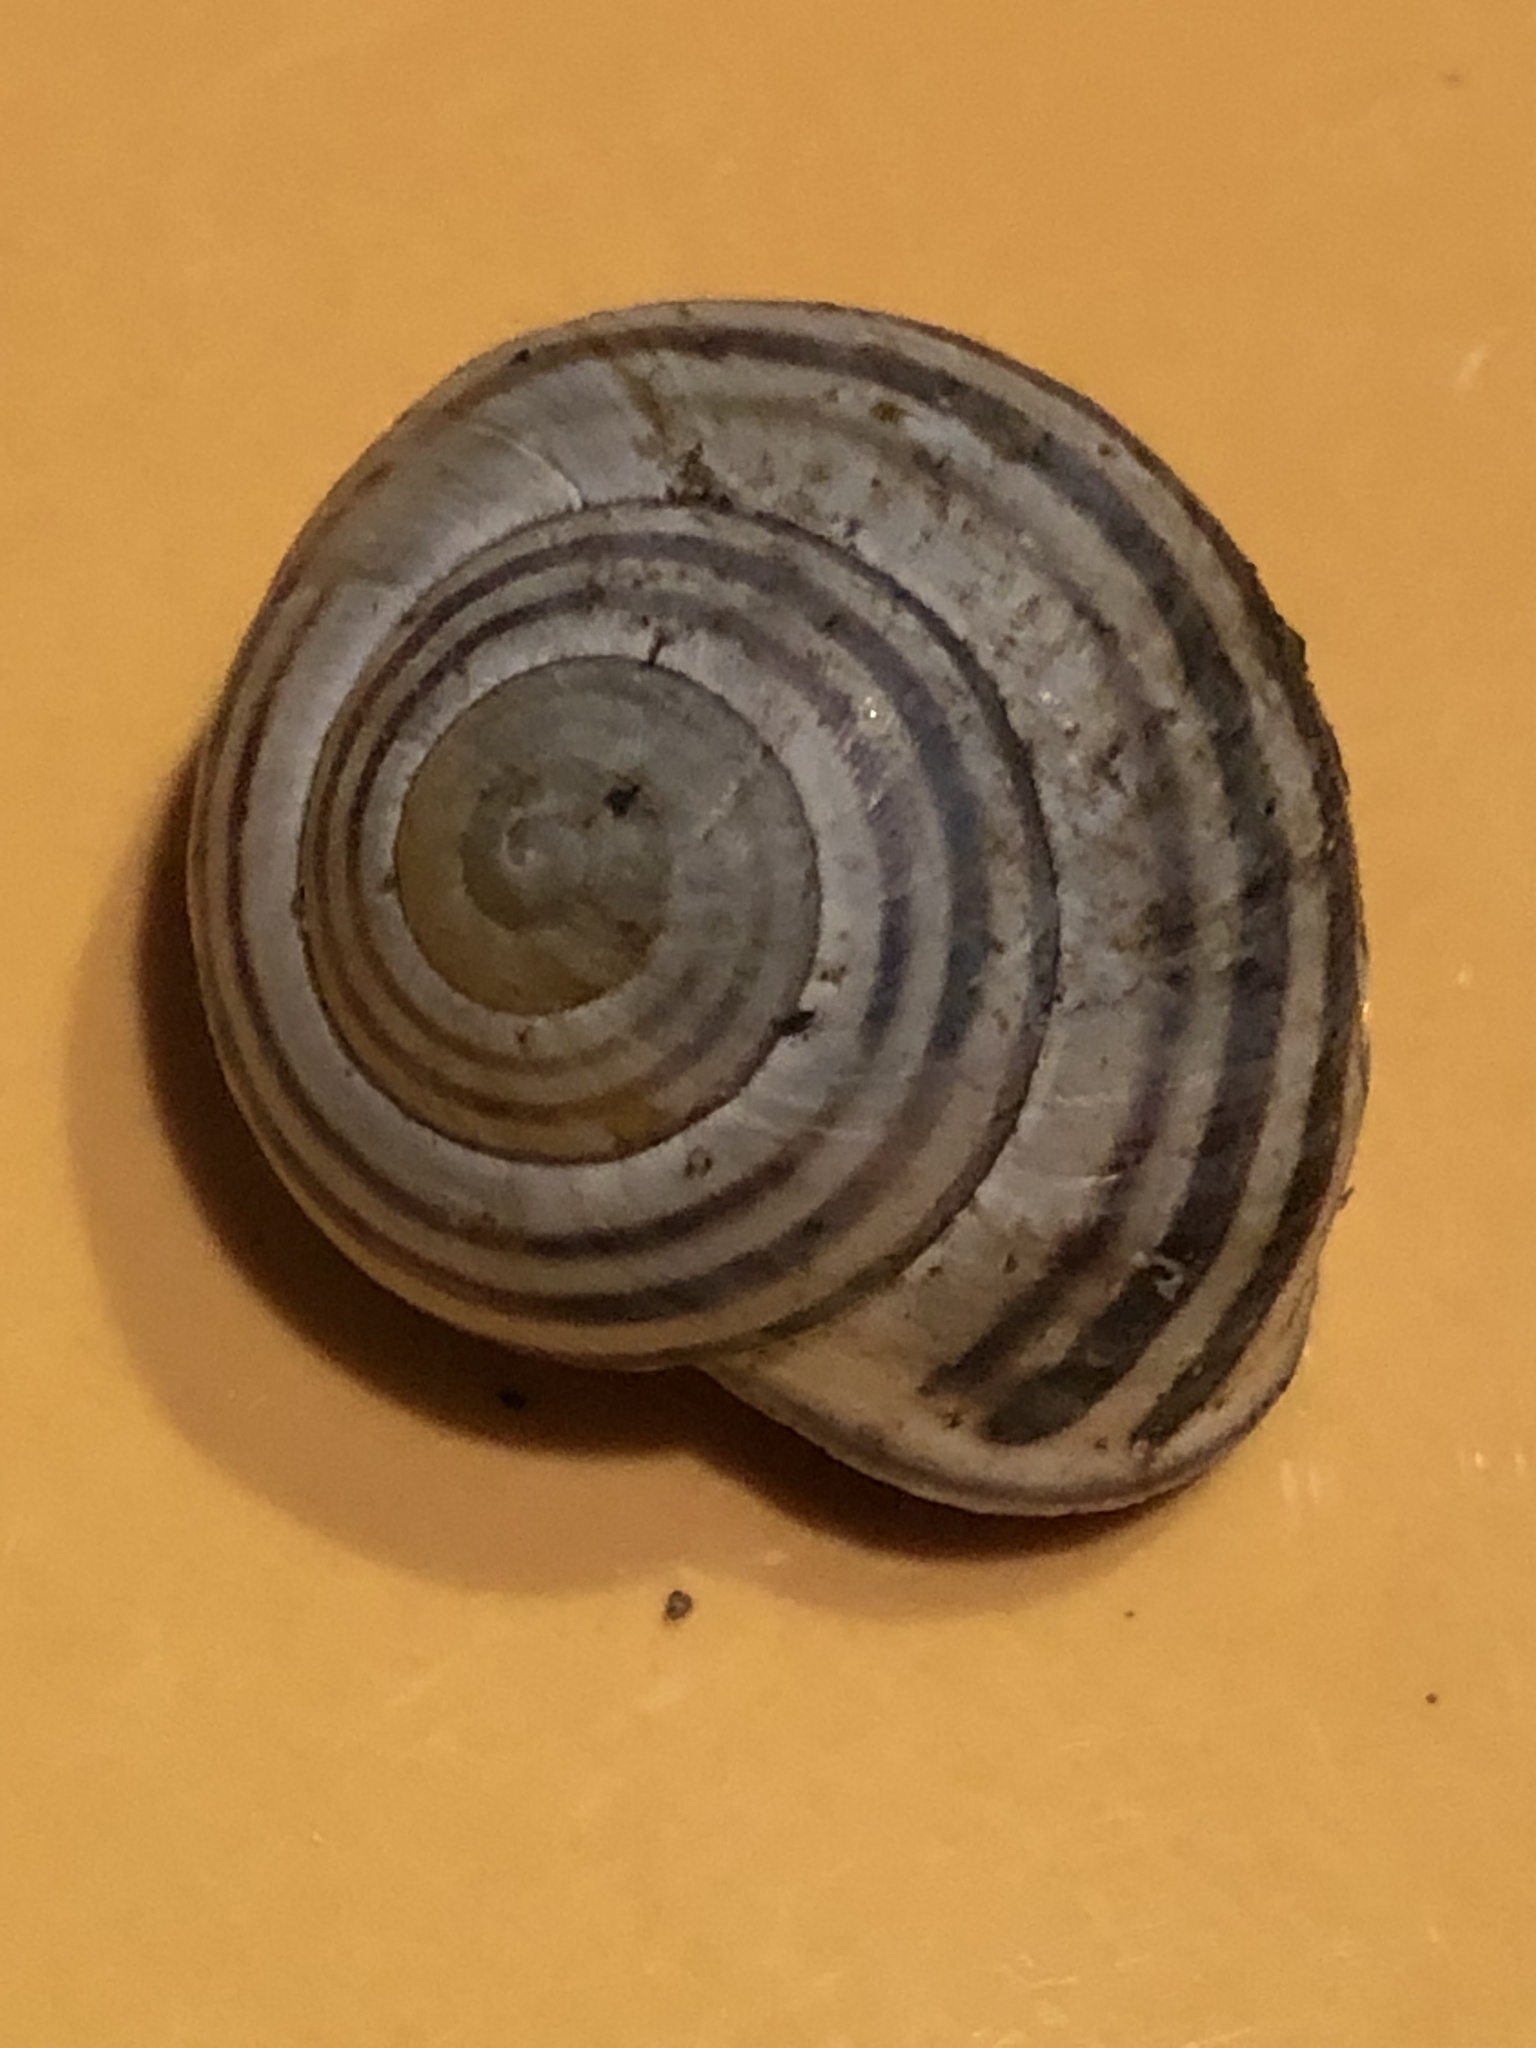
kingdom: Animalia
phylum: Mollusca
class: Gastropoda
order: Stylommatophora
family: Helicidae
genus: Cepaea
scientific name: Cepaea nemoralis
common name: Grovesnail
